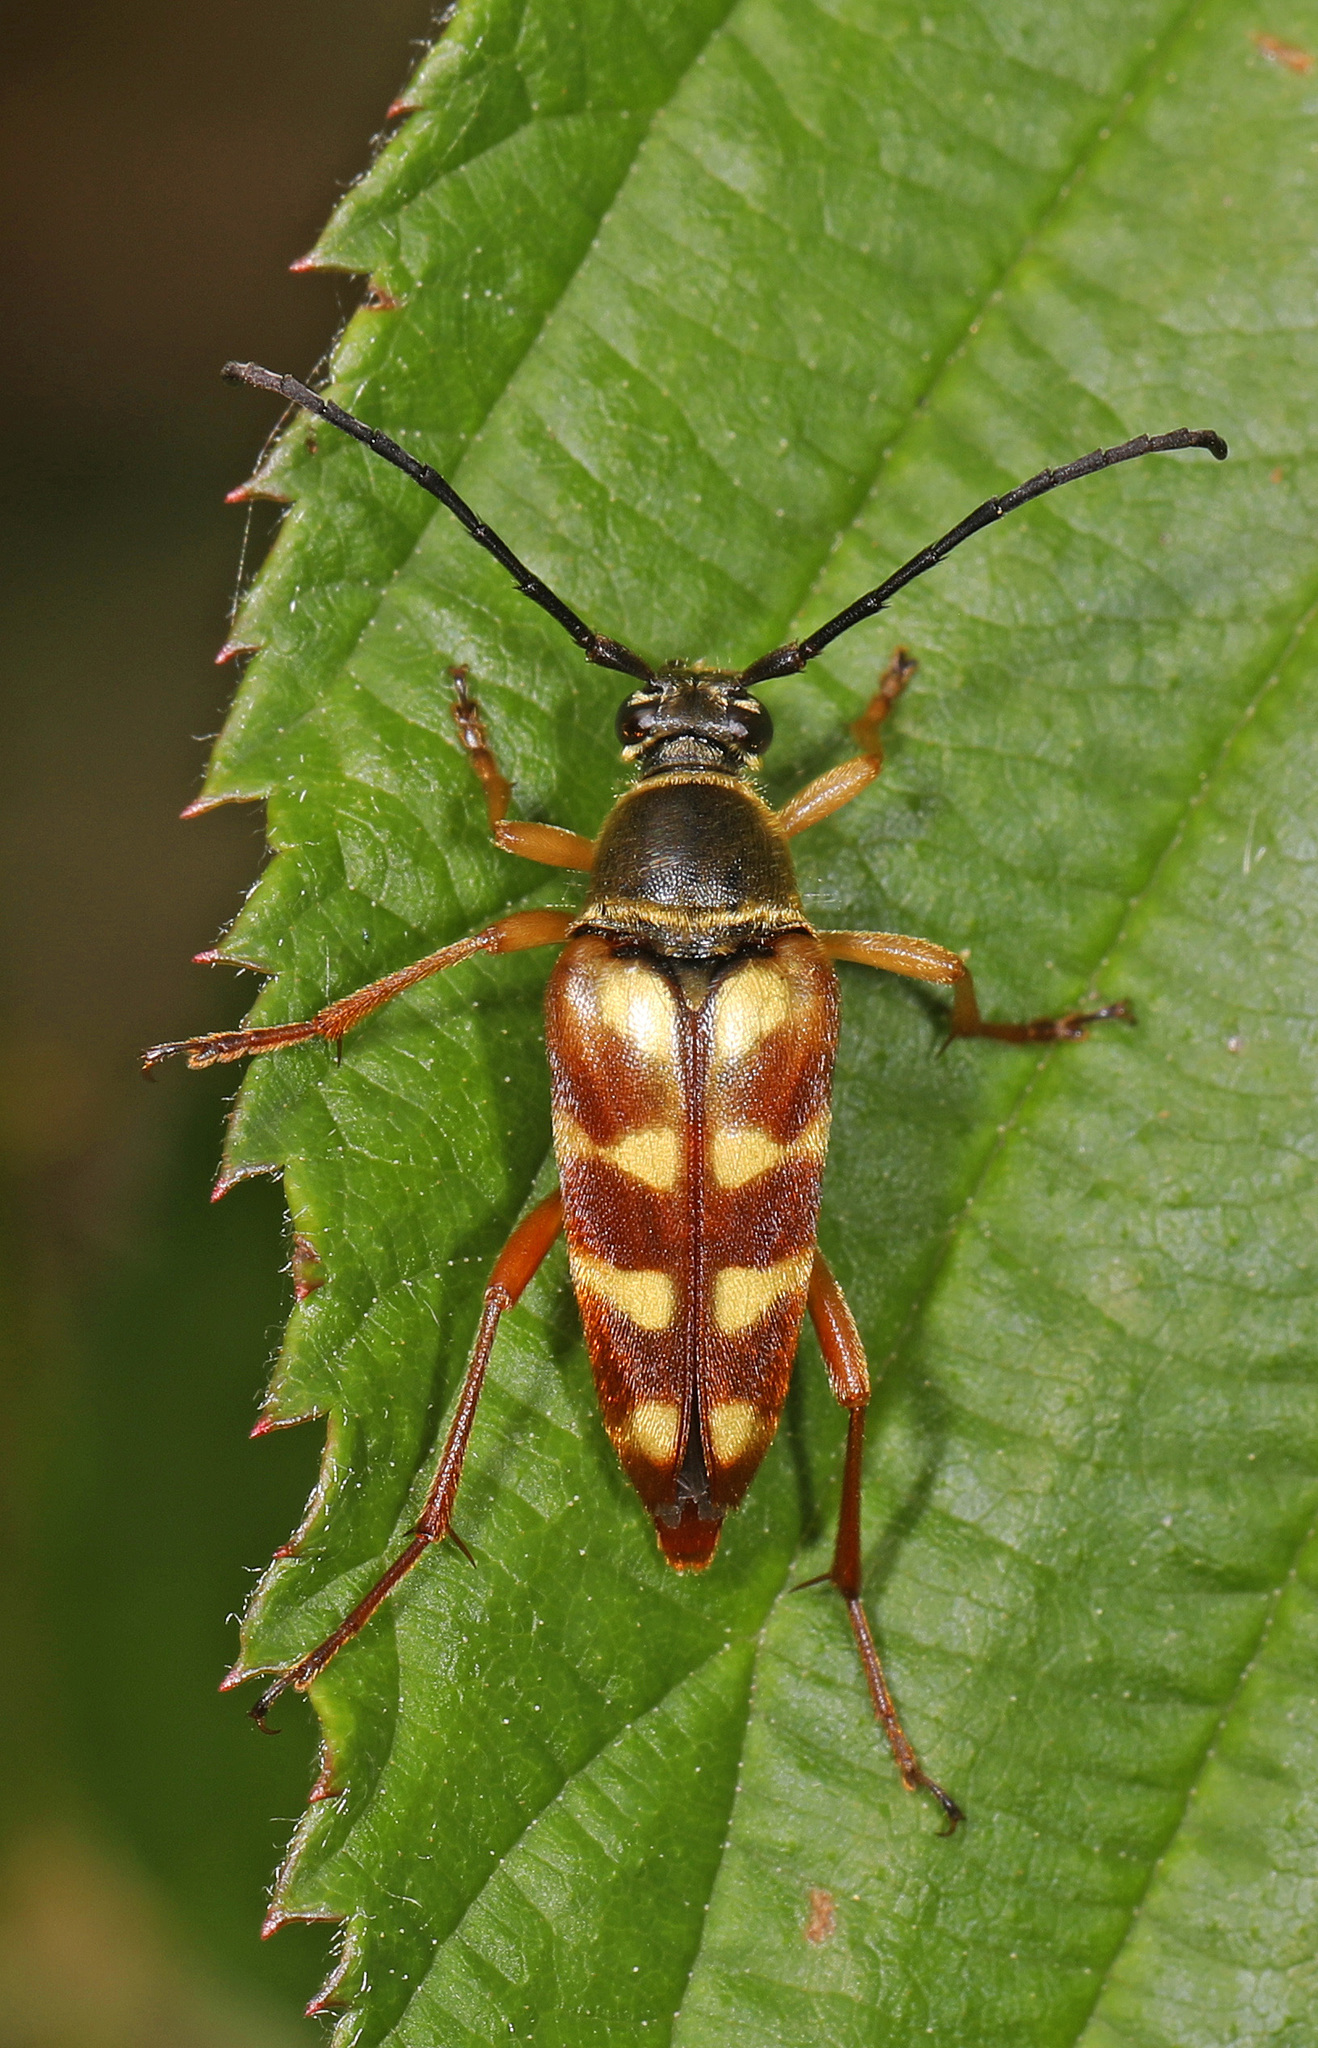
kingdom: Animalia
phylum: Arthropoda
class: Insecta
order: Coleoptera
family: Cerambycidae
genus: Typocerus
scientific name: Typocerus velutinus
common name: Banded longhorn beetle
